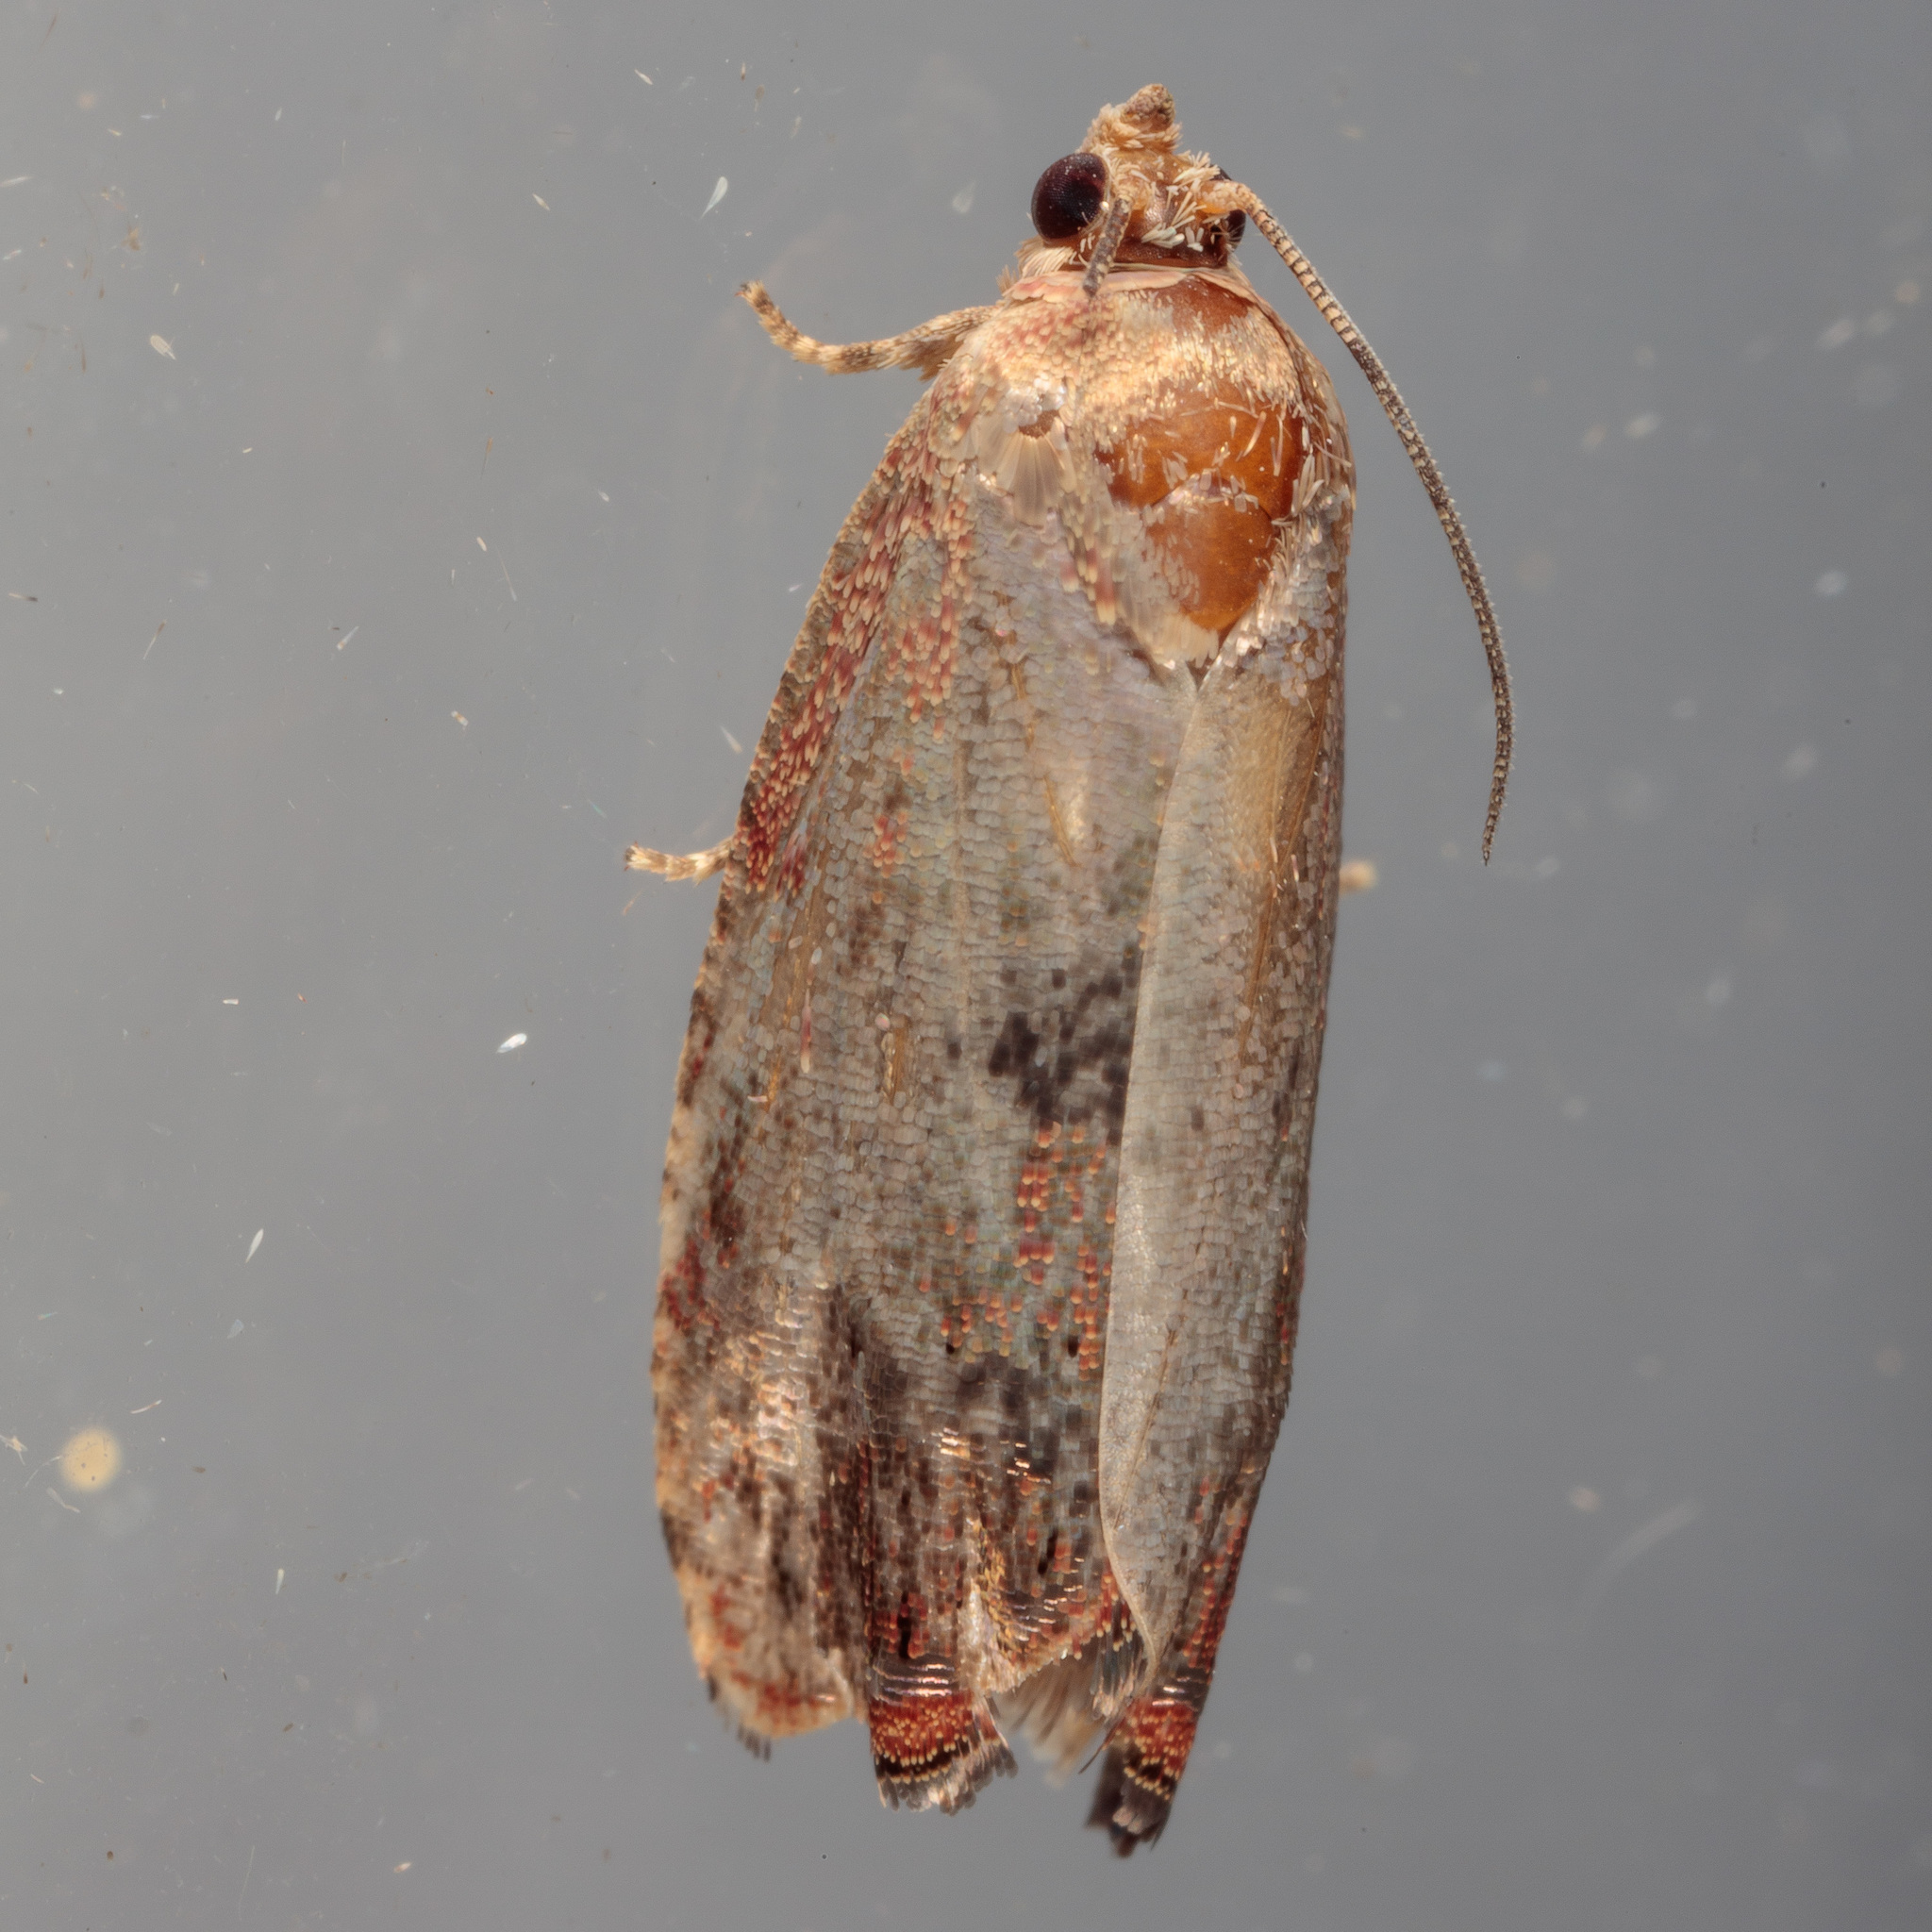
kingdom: Animalia
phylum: Arthropoda
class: Insecta
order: Lepidoptera
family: Tortricidae
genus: Cydia
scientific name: Cydia latiferreana
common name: Filbertworm moth
